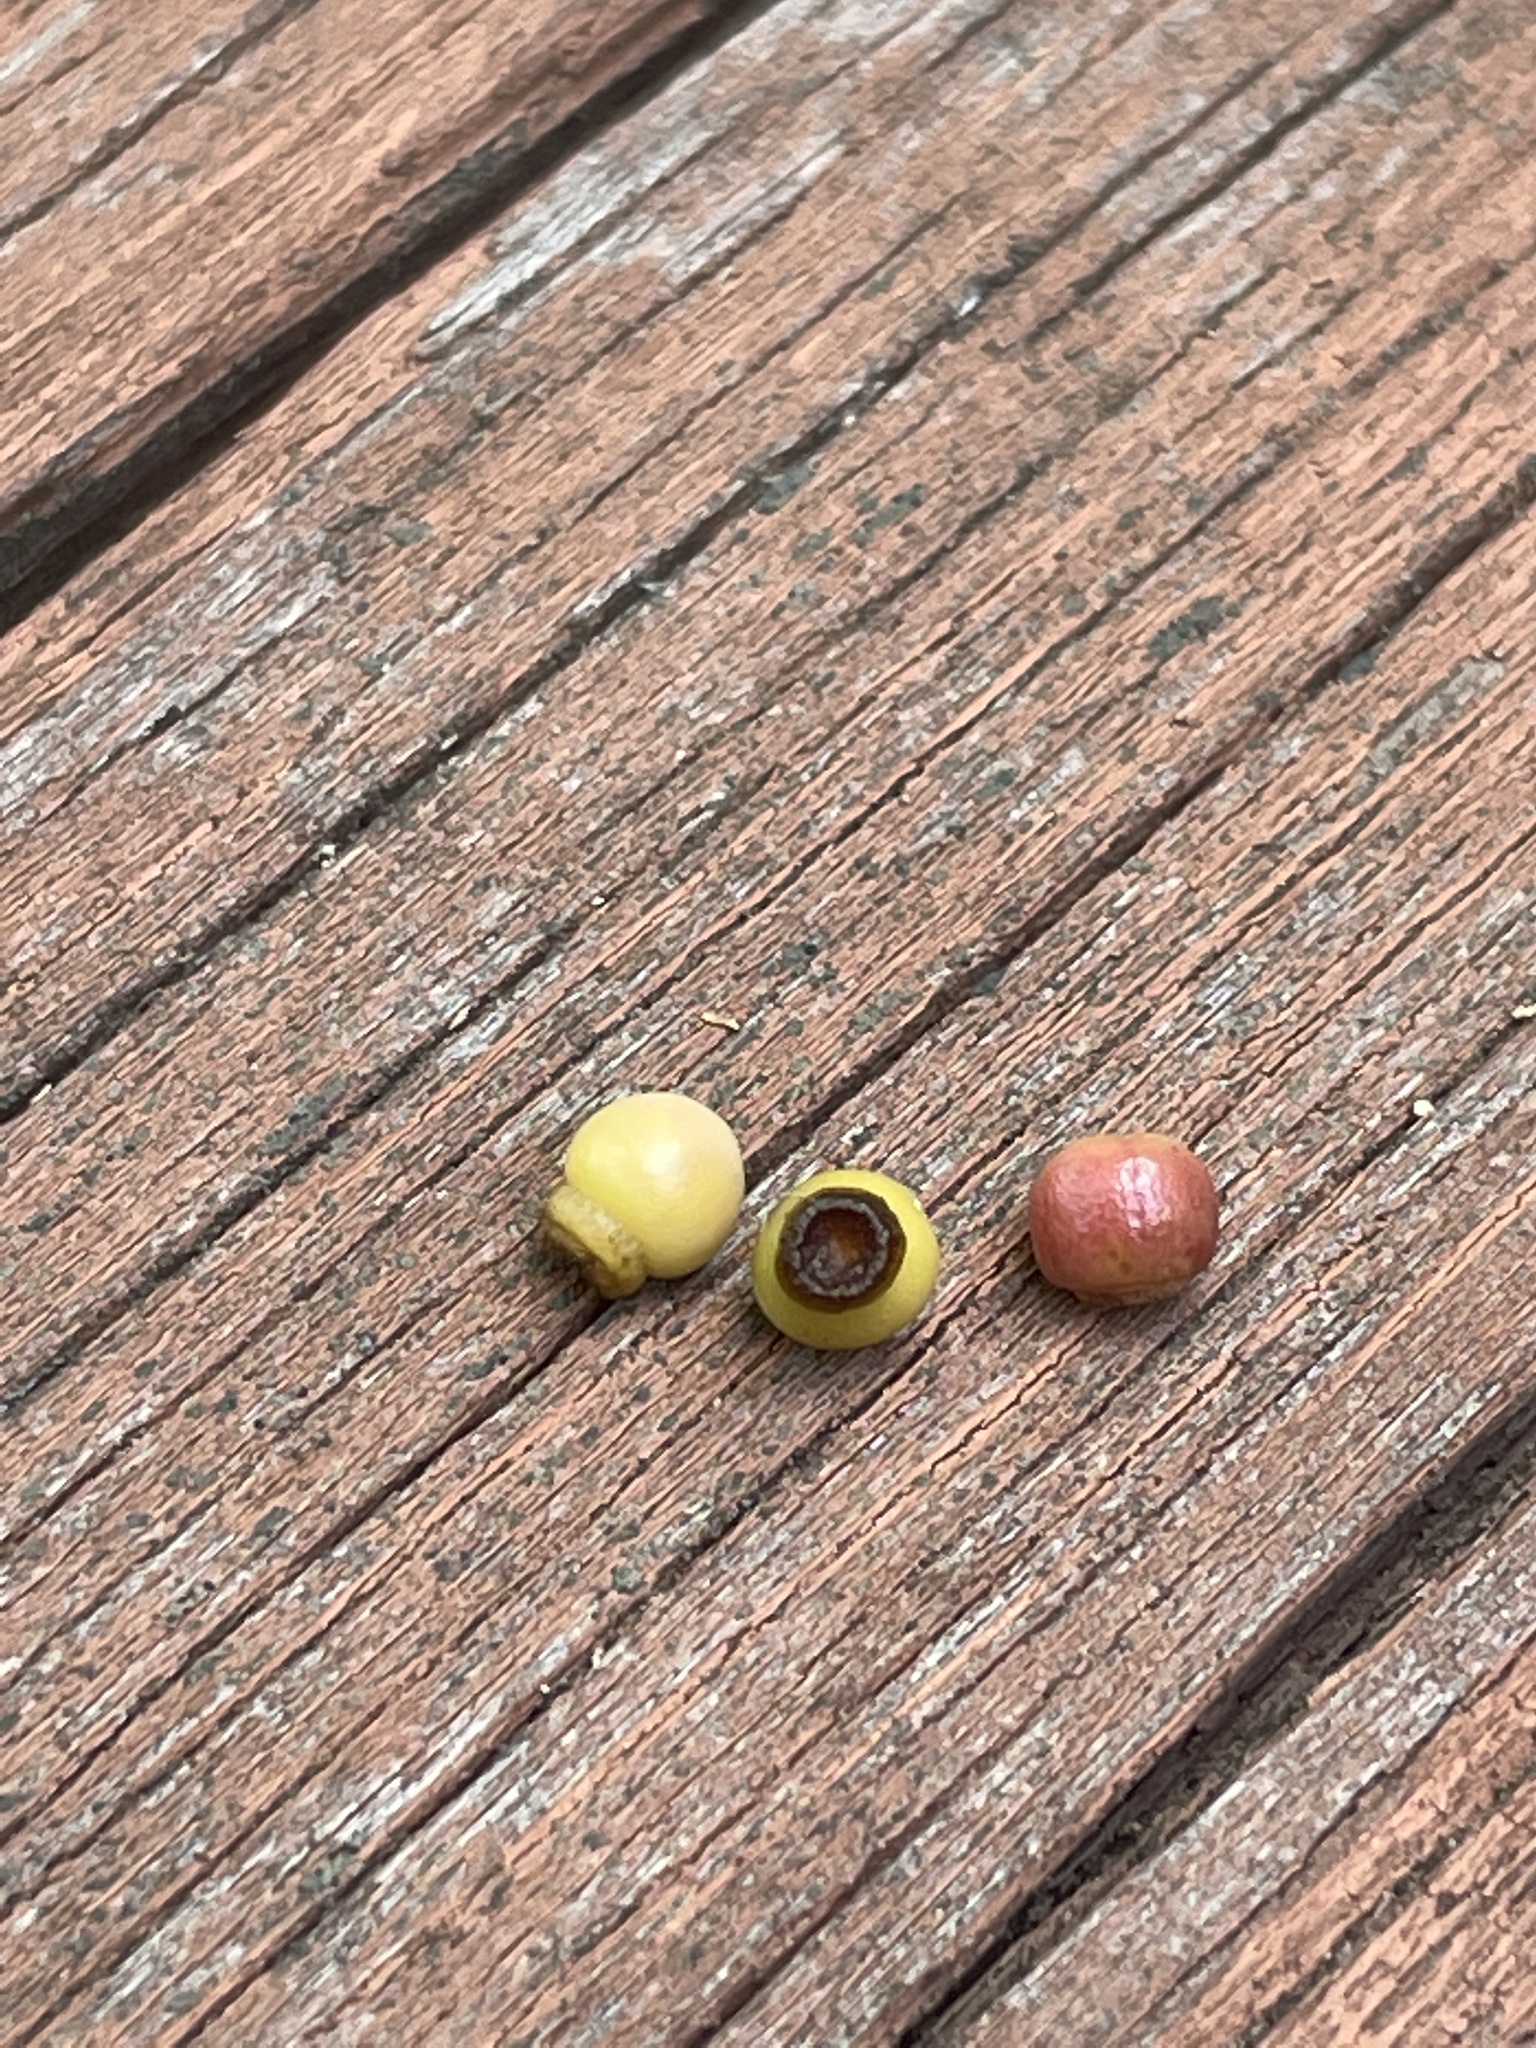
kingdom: Animalia
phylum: Arthropoda
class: Insecta
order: Hymenoptera
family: Cynipidae
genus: Kokkocynips
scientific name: Kokkocynips rileyi
